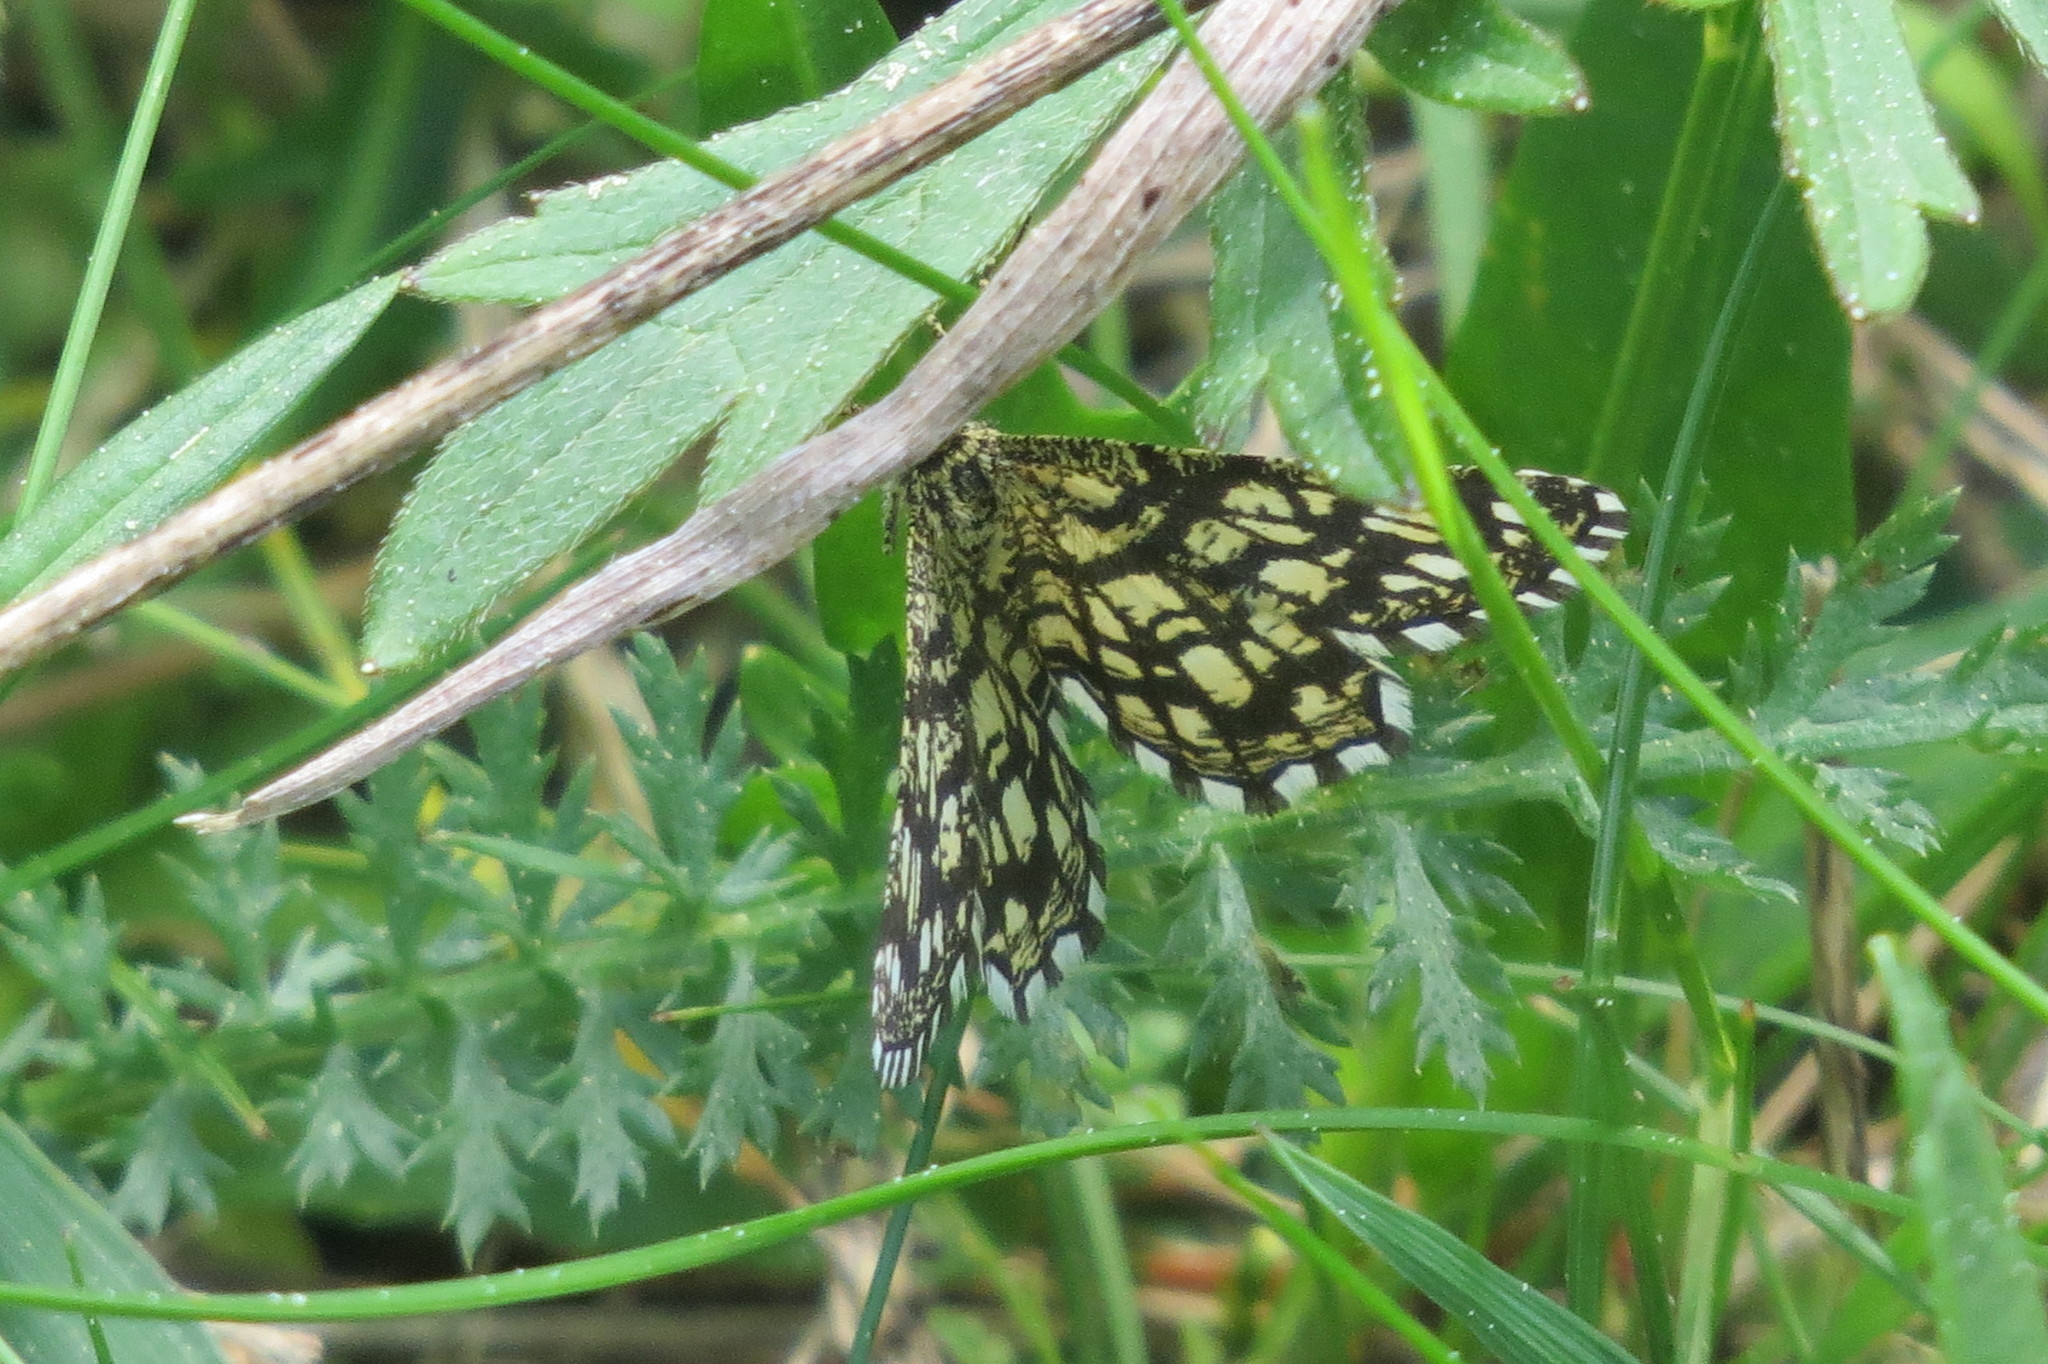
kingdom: Animalia
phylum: Arthropoda
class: Insecta
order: Lepidoptera
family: Geometridae
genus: Chiasmia
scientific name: Chiasmia clathrata
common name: Latticed heath
